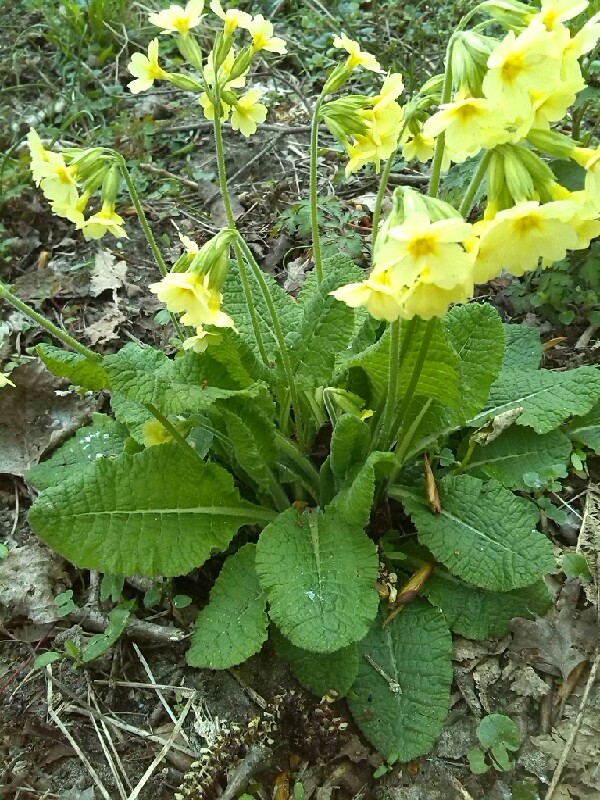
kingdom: Plantae
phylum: Tracheophyta
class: Magnoliopsida
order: Ericales
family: Primulaceae
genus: Primula
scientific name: Primula elatior
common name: Oxlip
